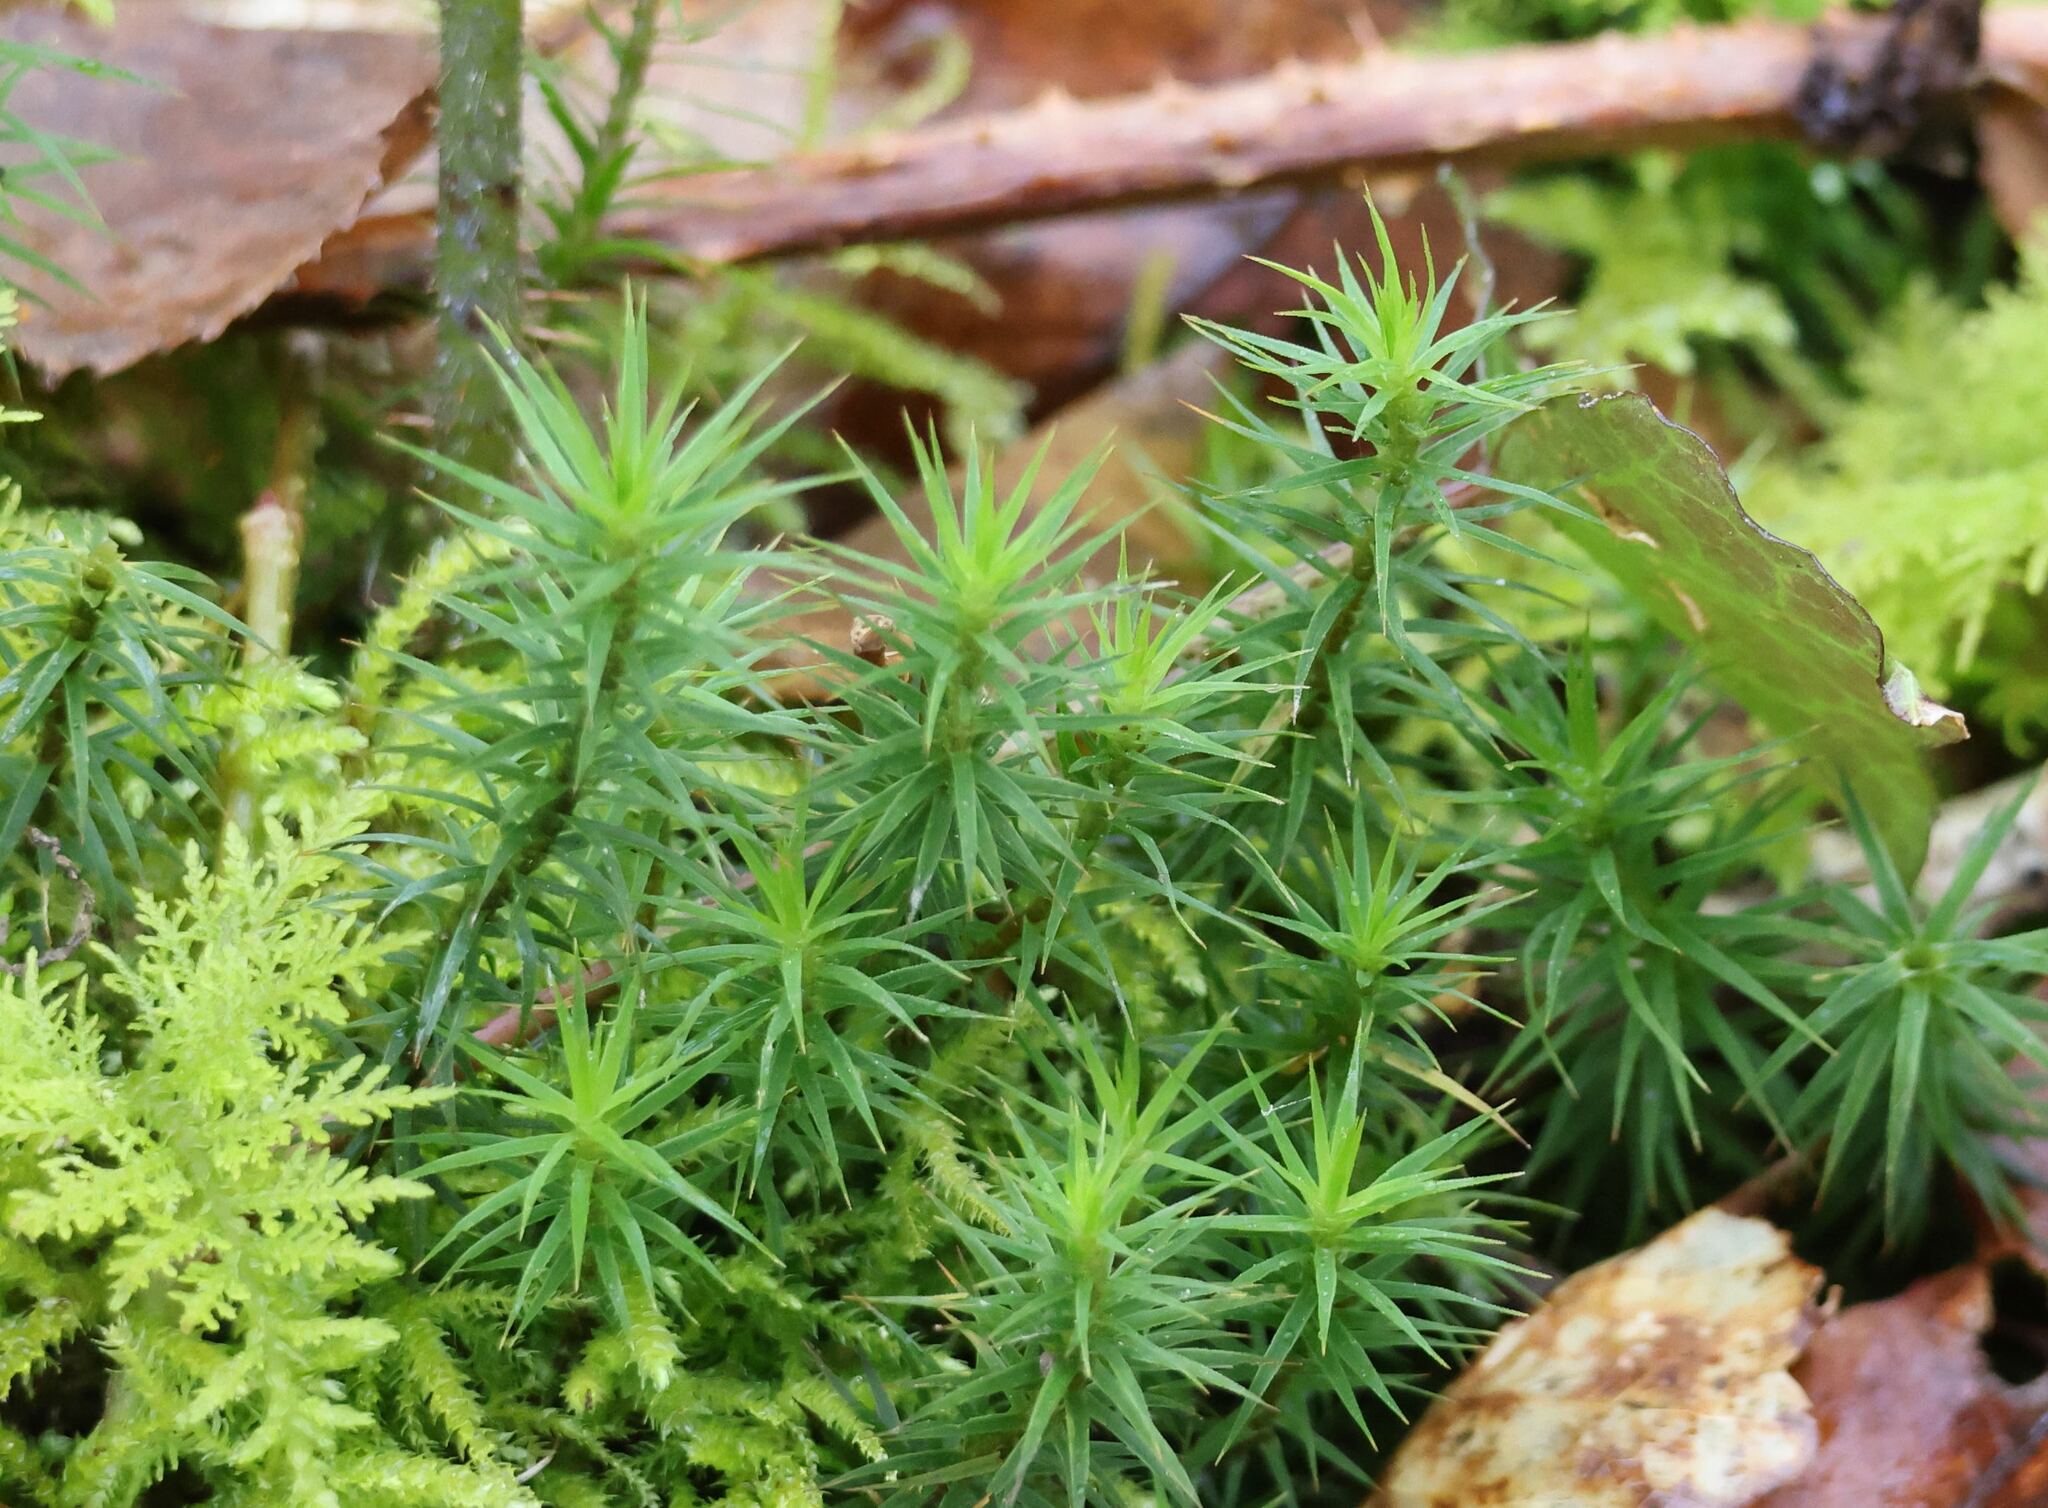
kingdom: Plantae
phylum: Bryophyta
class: Polytrichopsida
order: Polytrichales
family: Polytrichaceae
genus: Polytrichum
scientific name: Polytrichum formosum
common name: Bank haircap moss
